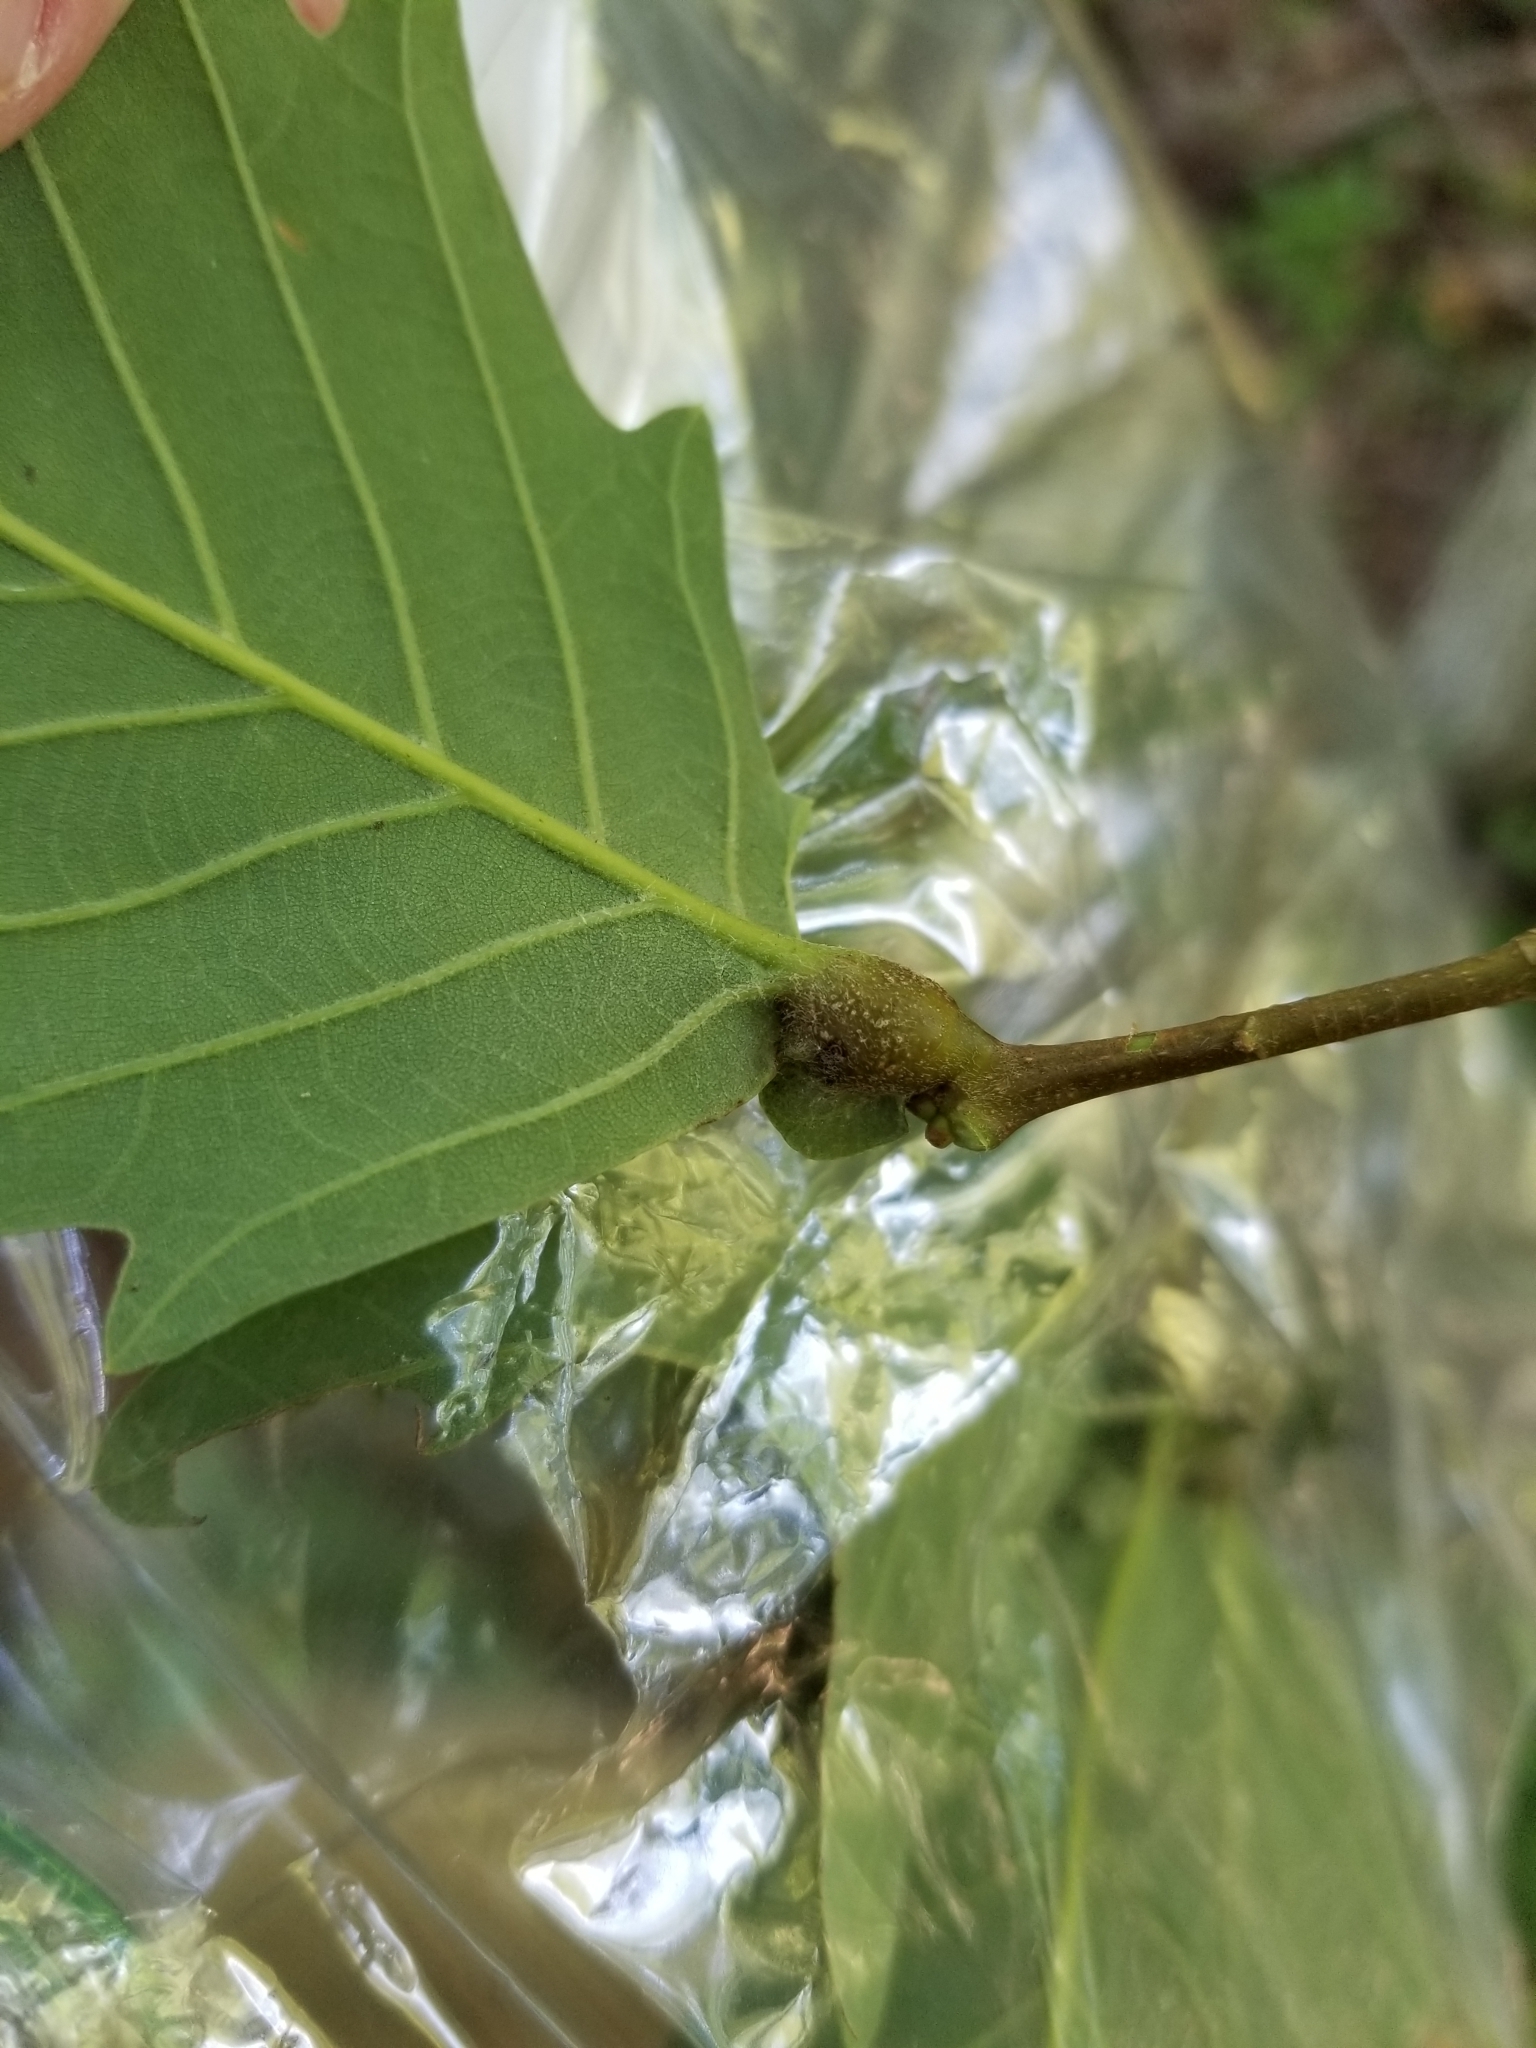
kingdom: Animalia
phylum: Arthropoda
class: Insecta
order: Hymenoptera
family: Cynipidae
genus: Andricus
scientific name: Andricus
